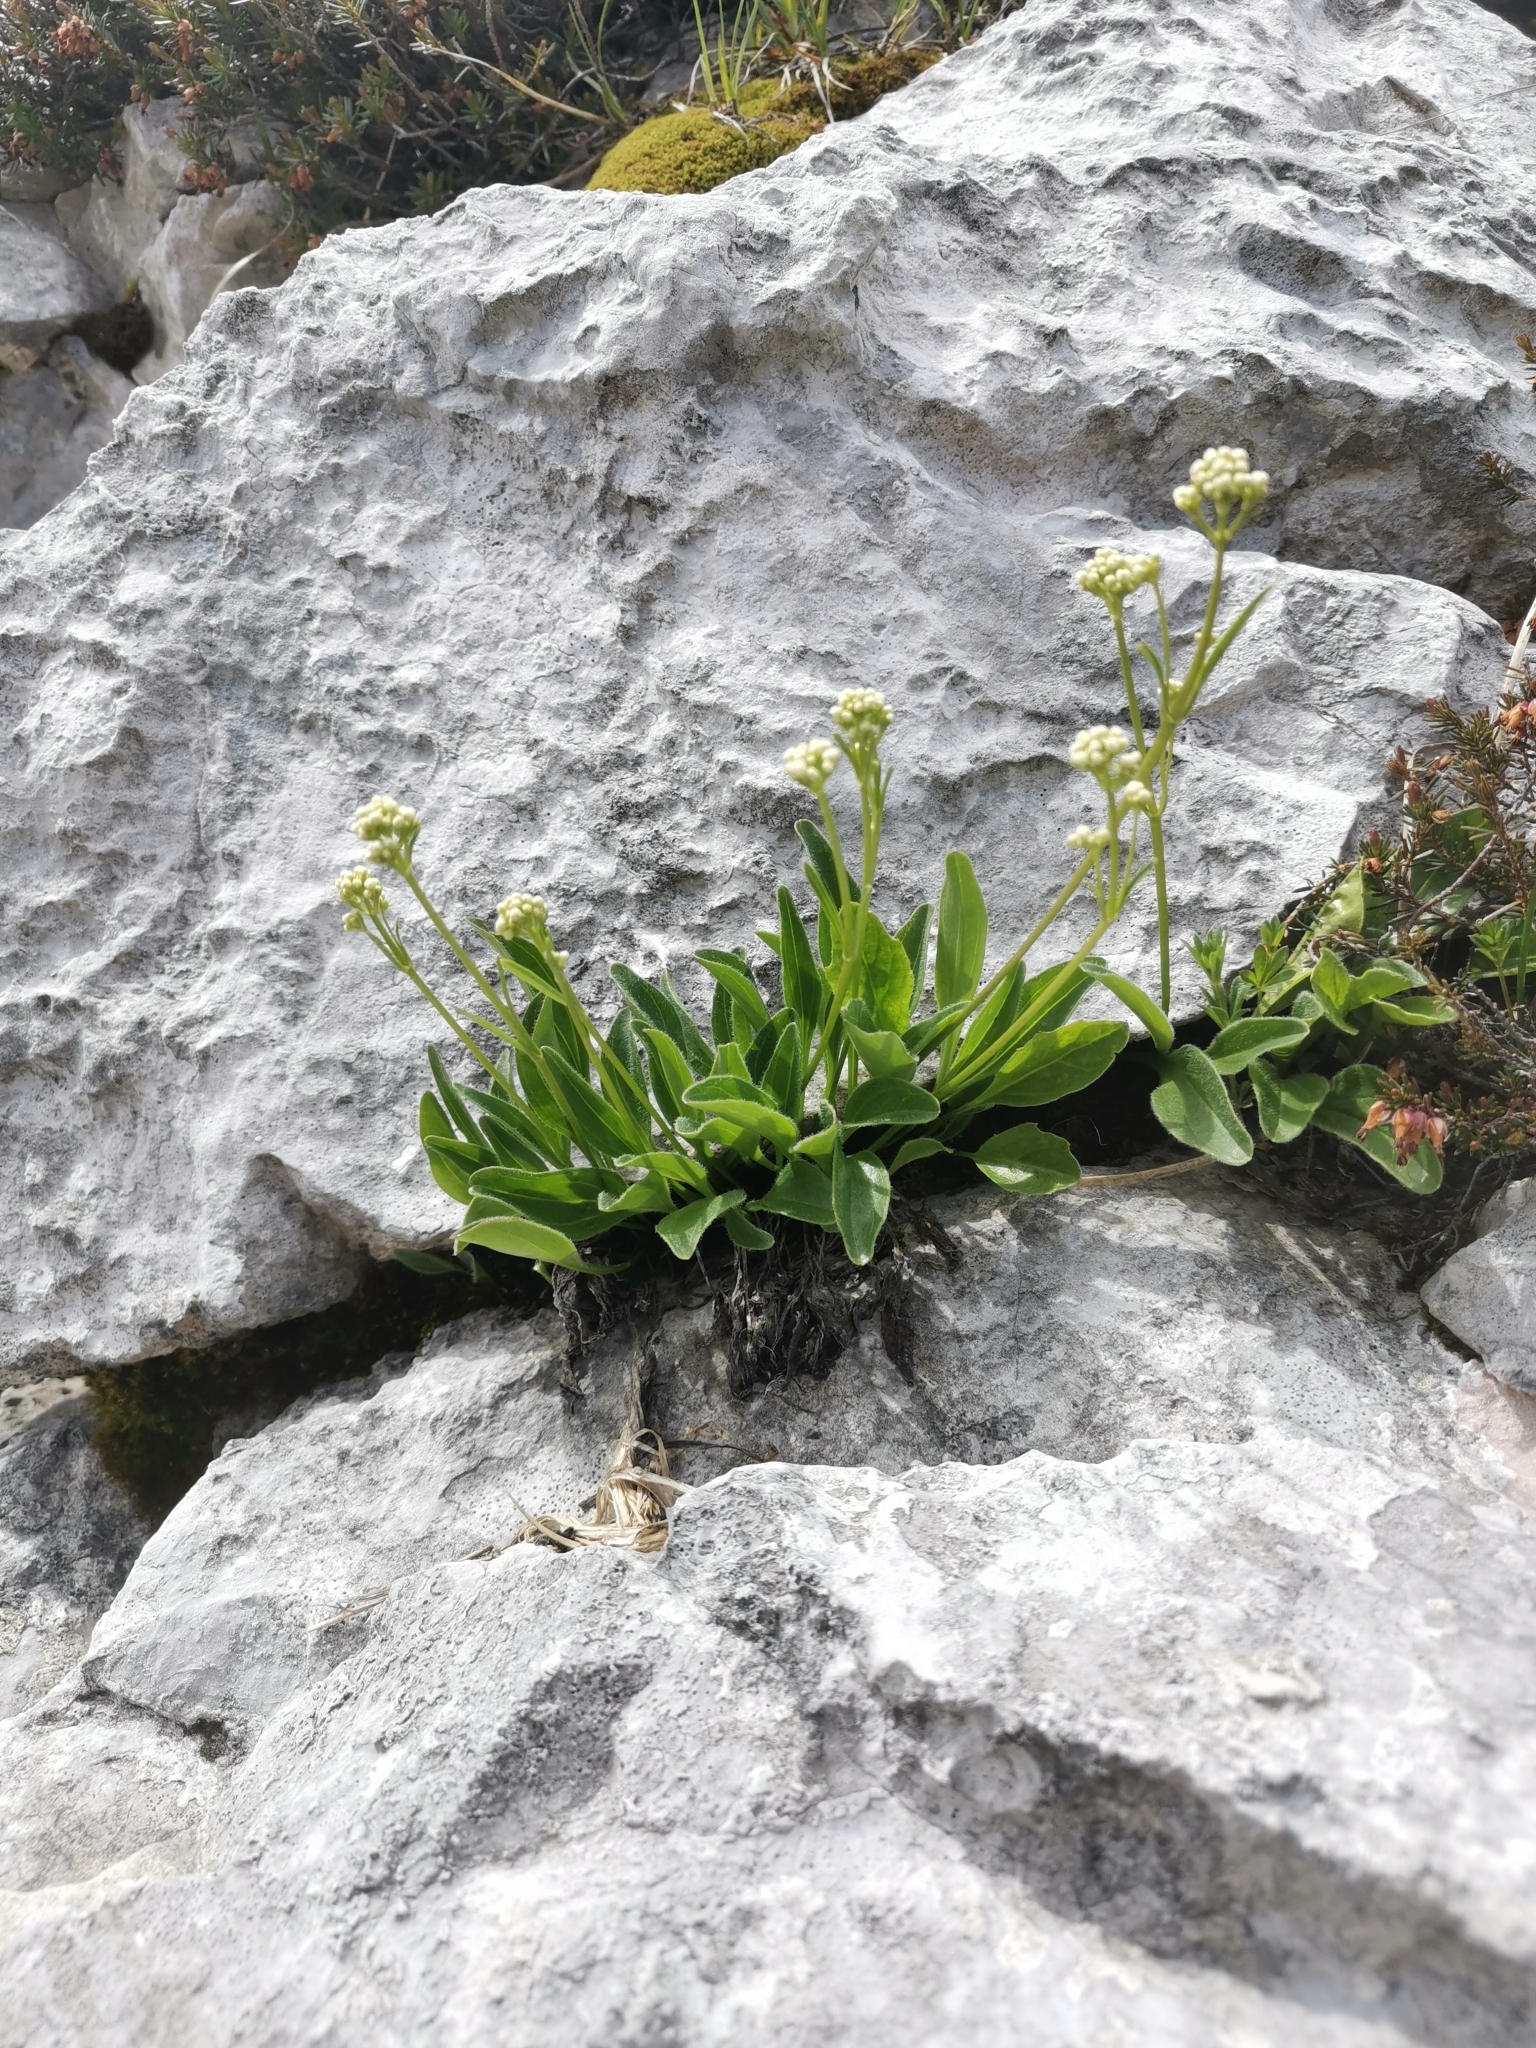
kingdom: Plantae
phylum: Tracheophyta
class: Magnoliopsida
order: Dipsacales
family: Caprifoliaceae
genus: Valeriana
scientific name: Valeriana saxatilis
